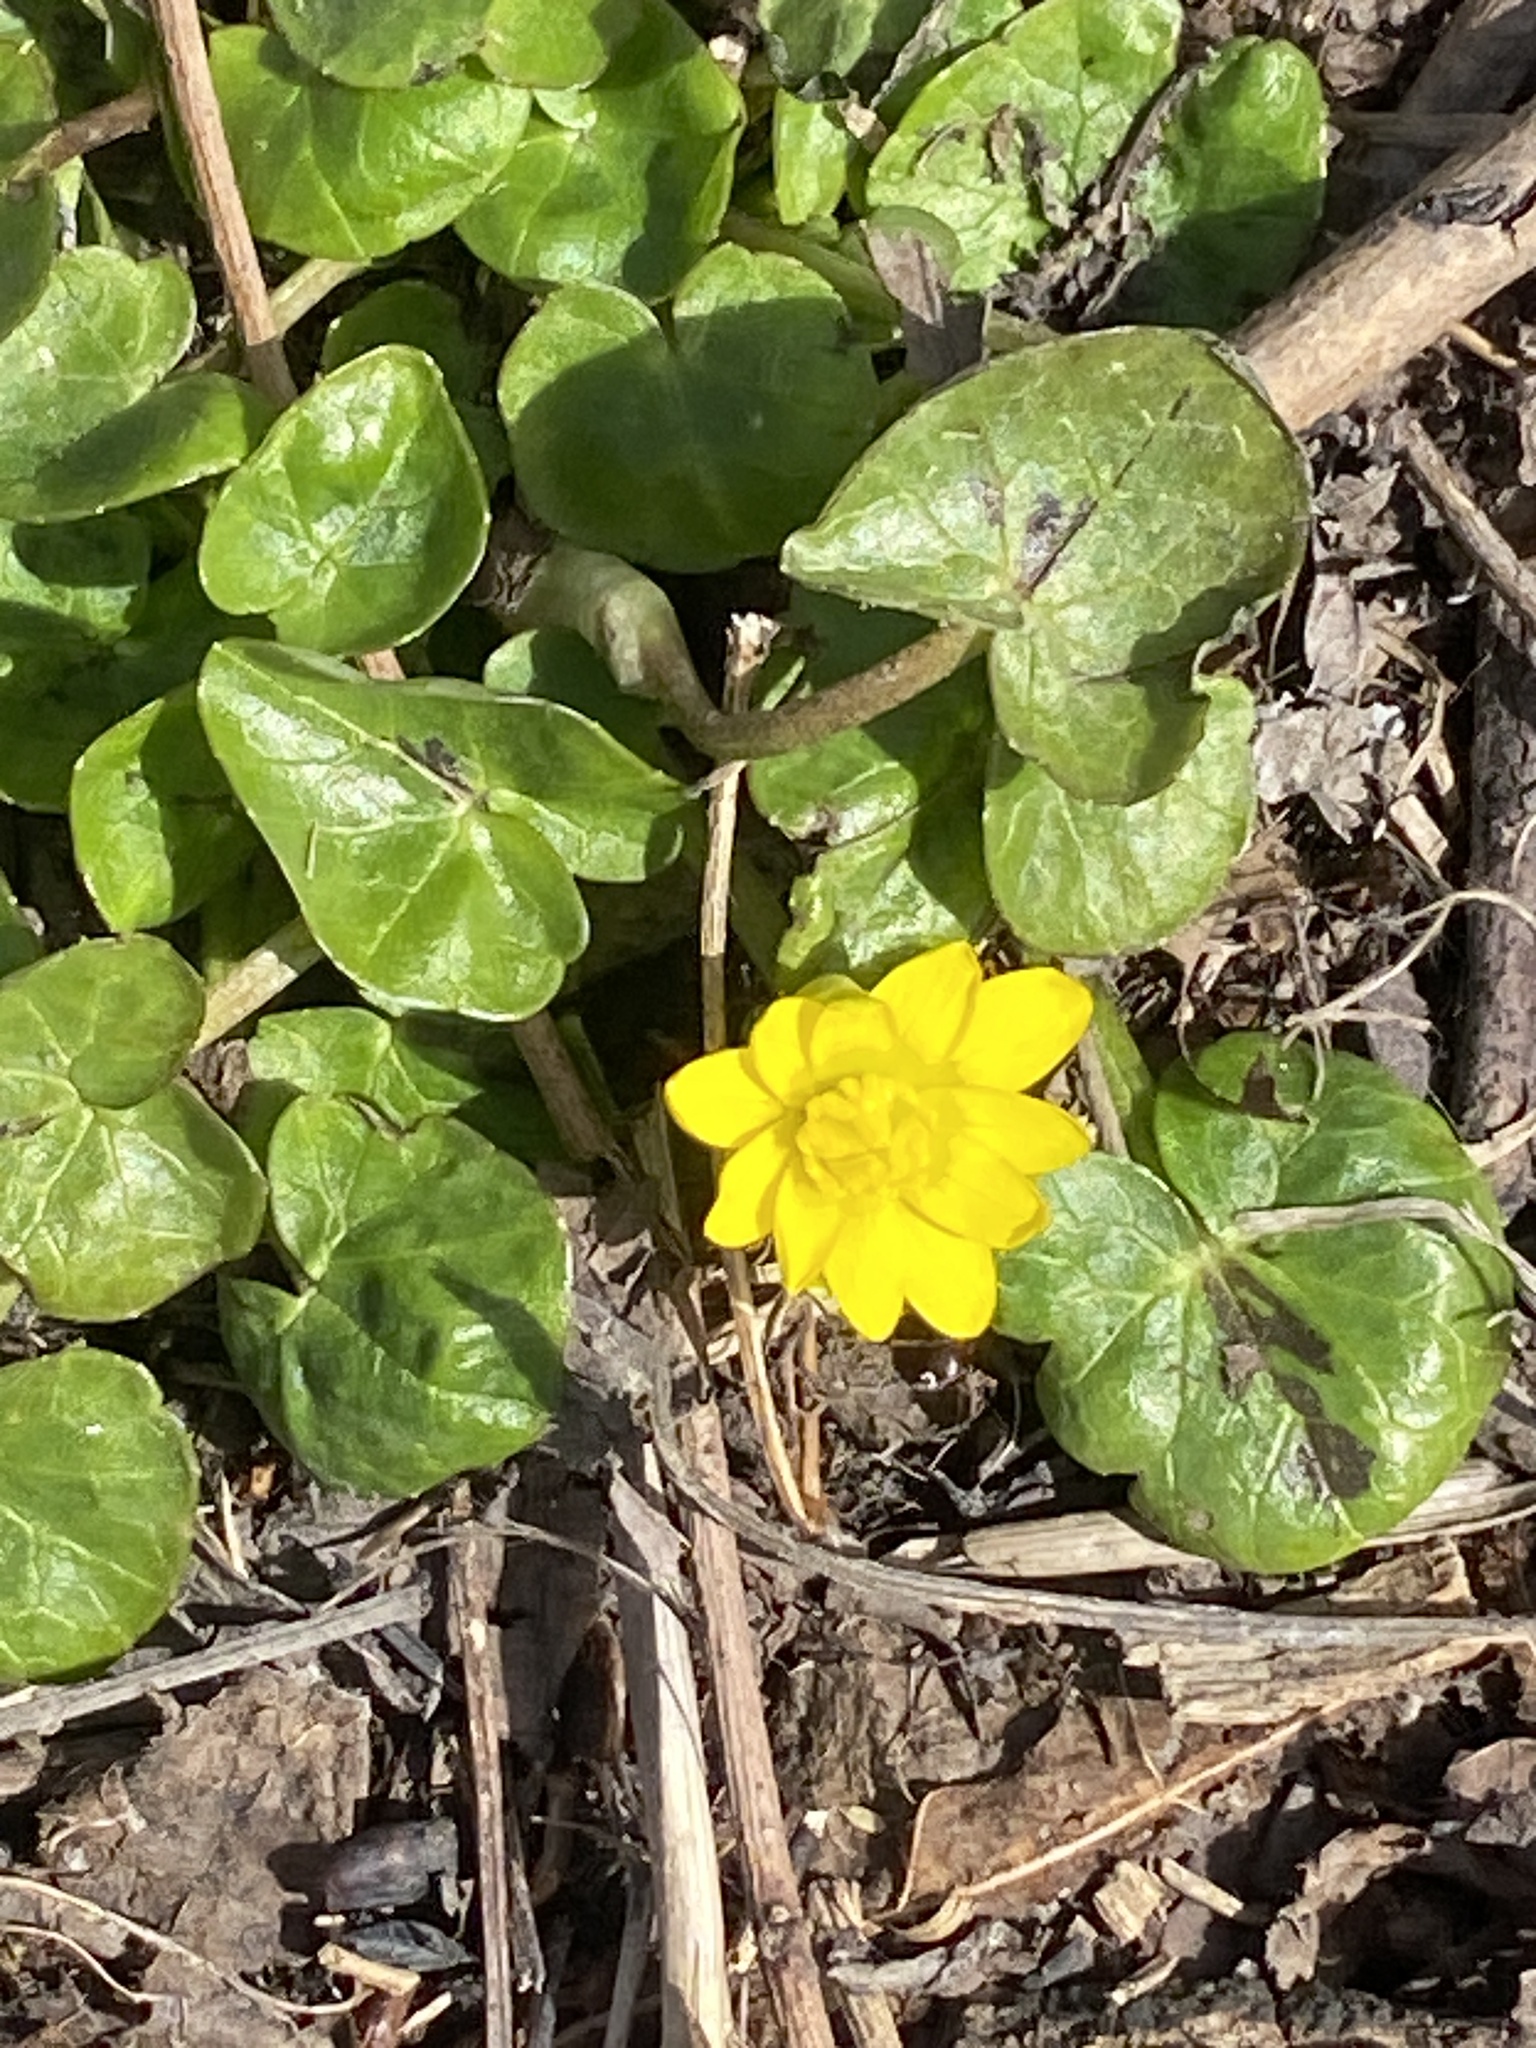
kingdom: Plantae
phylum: Tracheophyta
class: Magnoliopsida
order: Ranunculales
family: Ranunculaceae
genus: Ficaria
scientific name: Ficaria verna
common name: Lesser celandine
